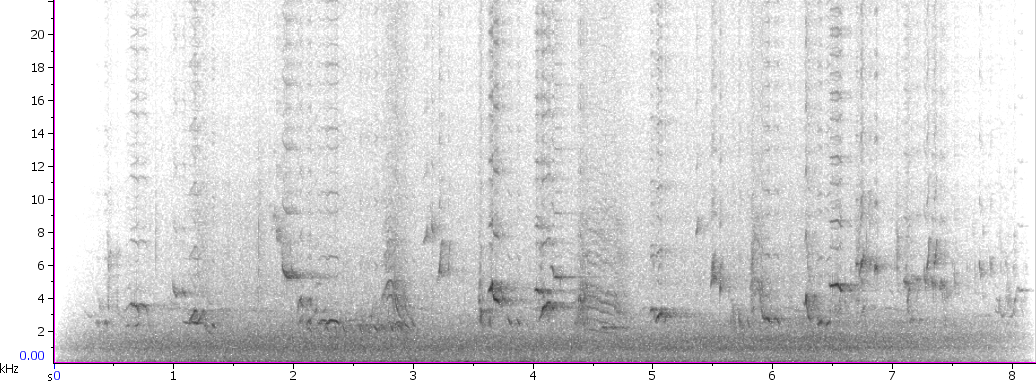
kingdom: Animalia
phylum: Chordata
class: Aves
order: Passeriformes
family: Mimidae
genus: Dumetella
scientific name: Dumetella carolinensis
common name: Gray catbird
